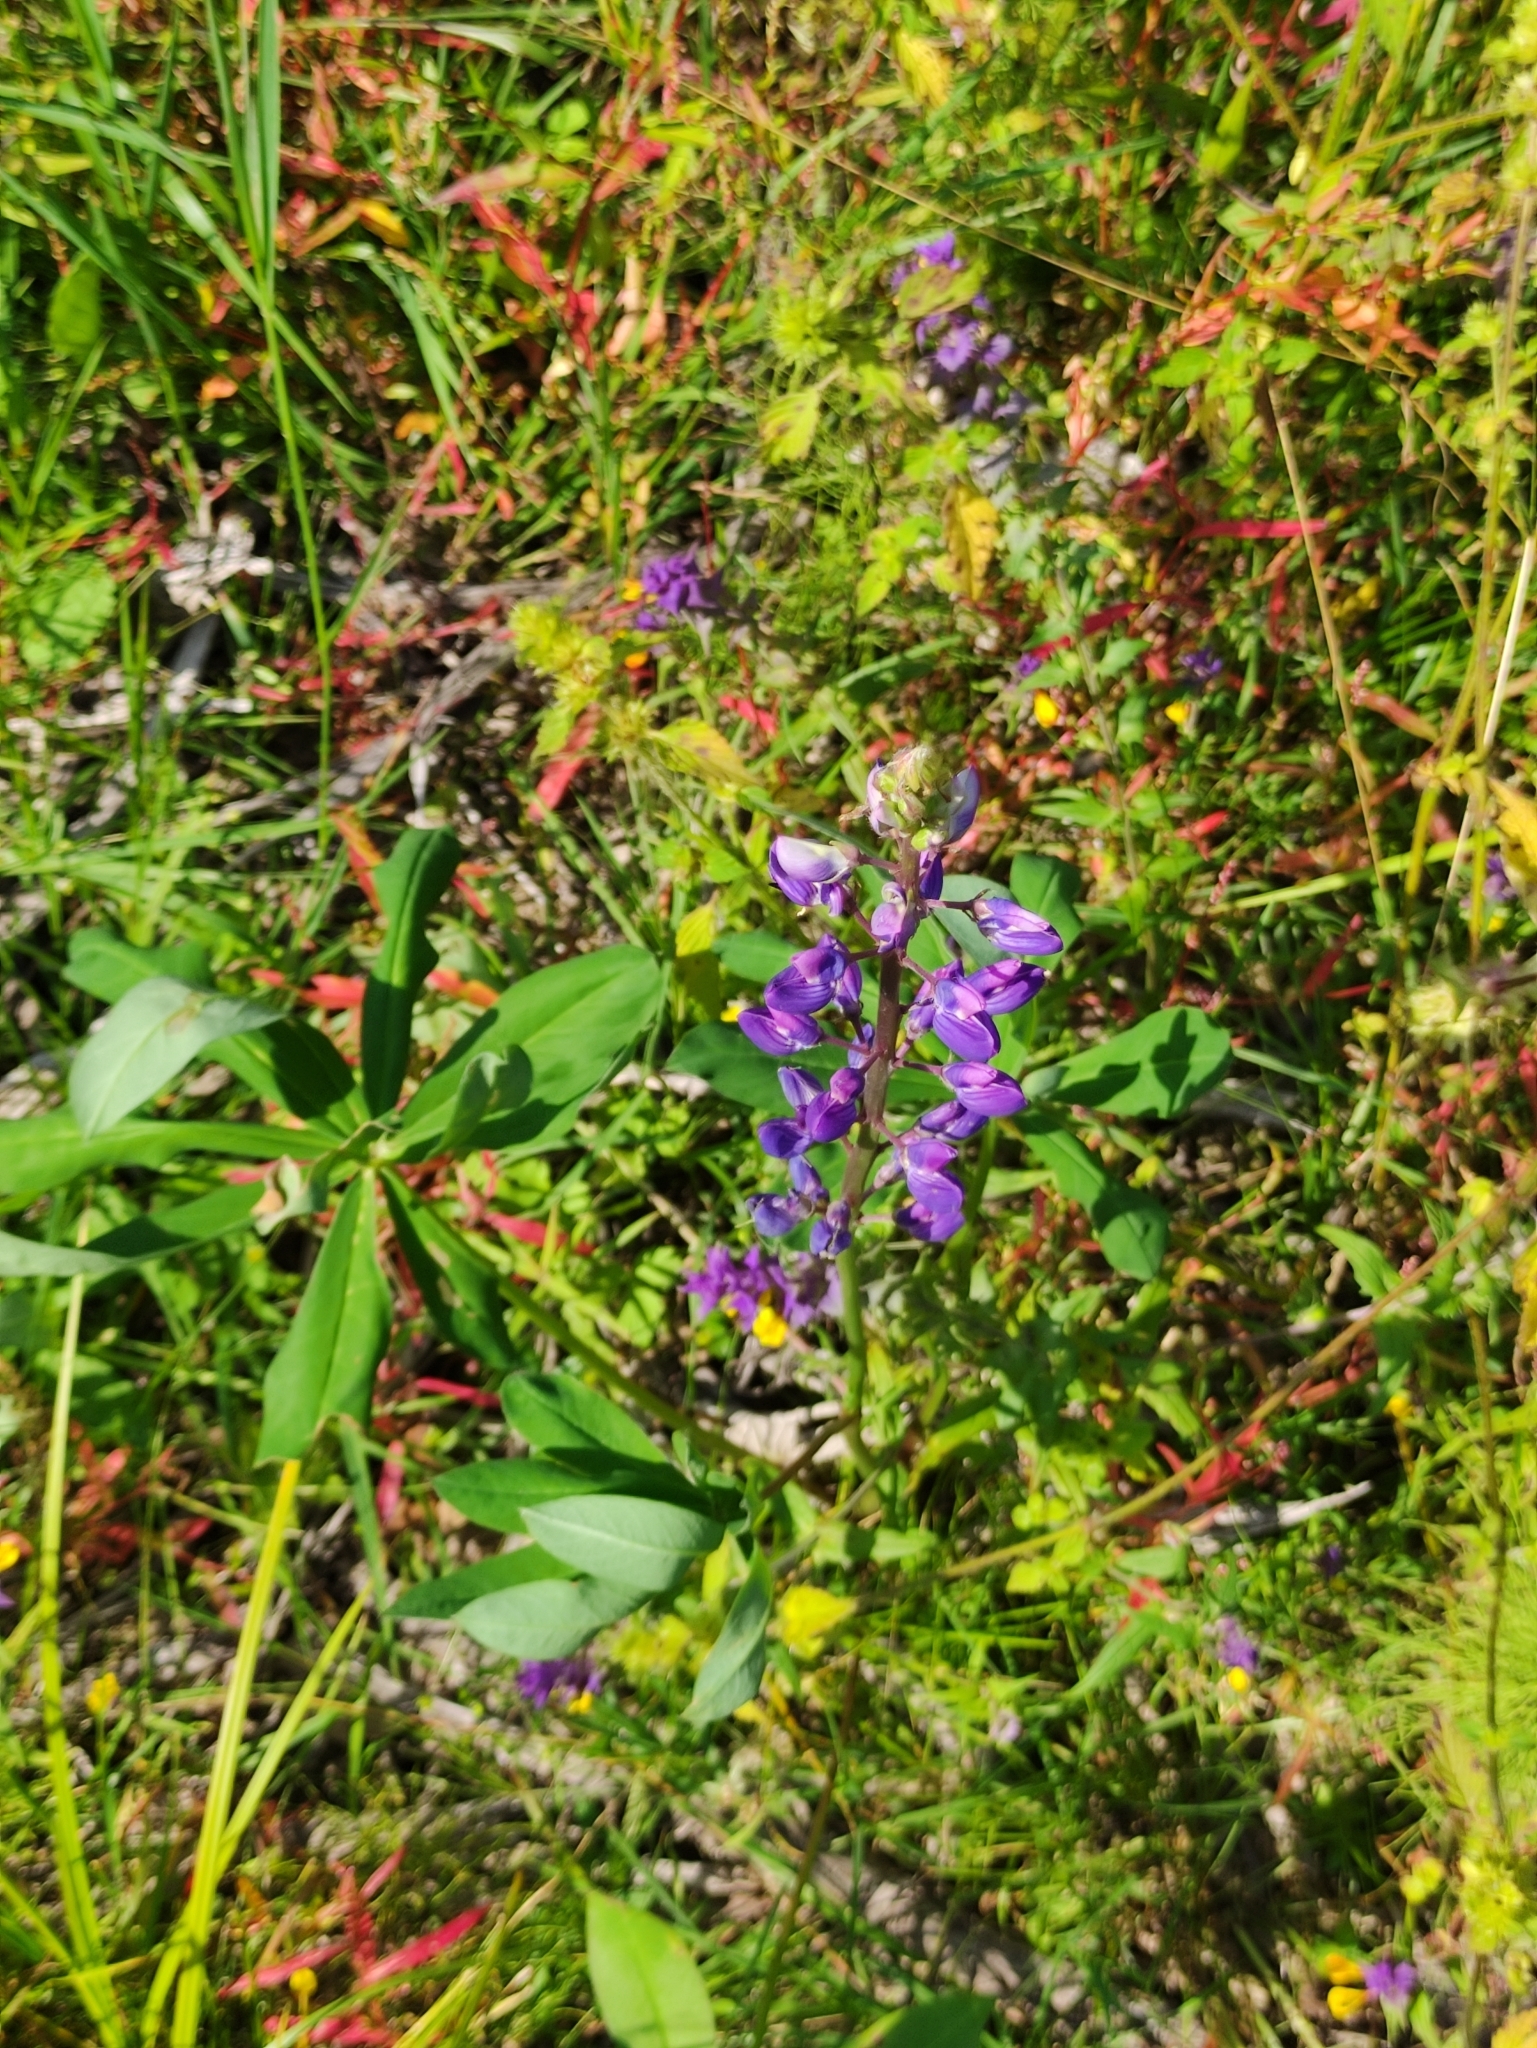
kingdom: Plantae
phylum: Tracheophyta
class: Magnoliopsida
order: Fabales
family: Fabaceae
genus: Lupinus
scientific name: Lupinus polyphyllus
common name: Garden lupin
